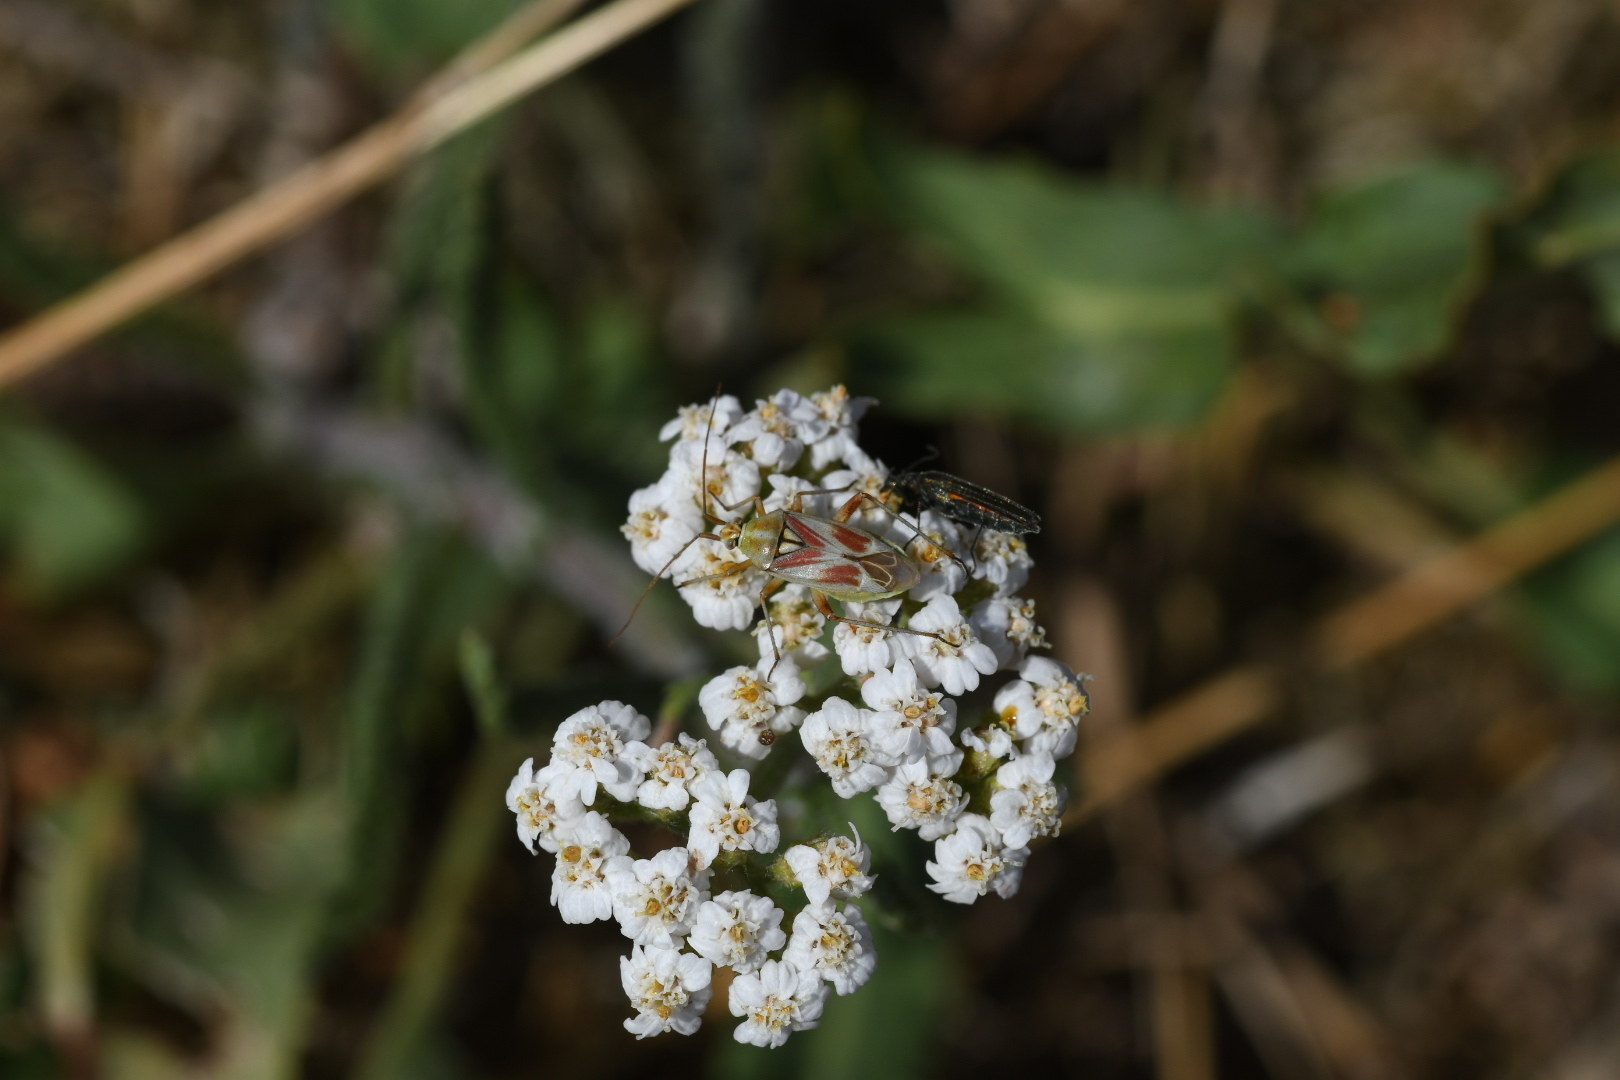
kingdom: Animalia
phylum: Arthropoda
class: Insecta
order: Hemiptera
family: Miridae
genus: Calocoris
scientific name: Calocoris roseomaculatus
